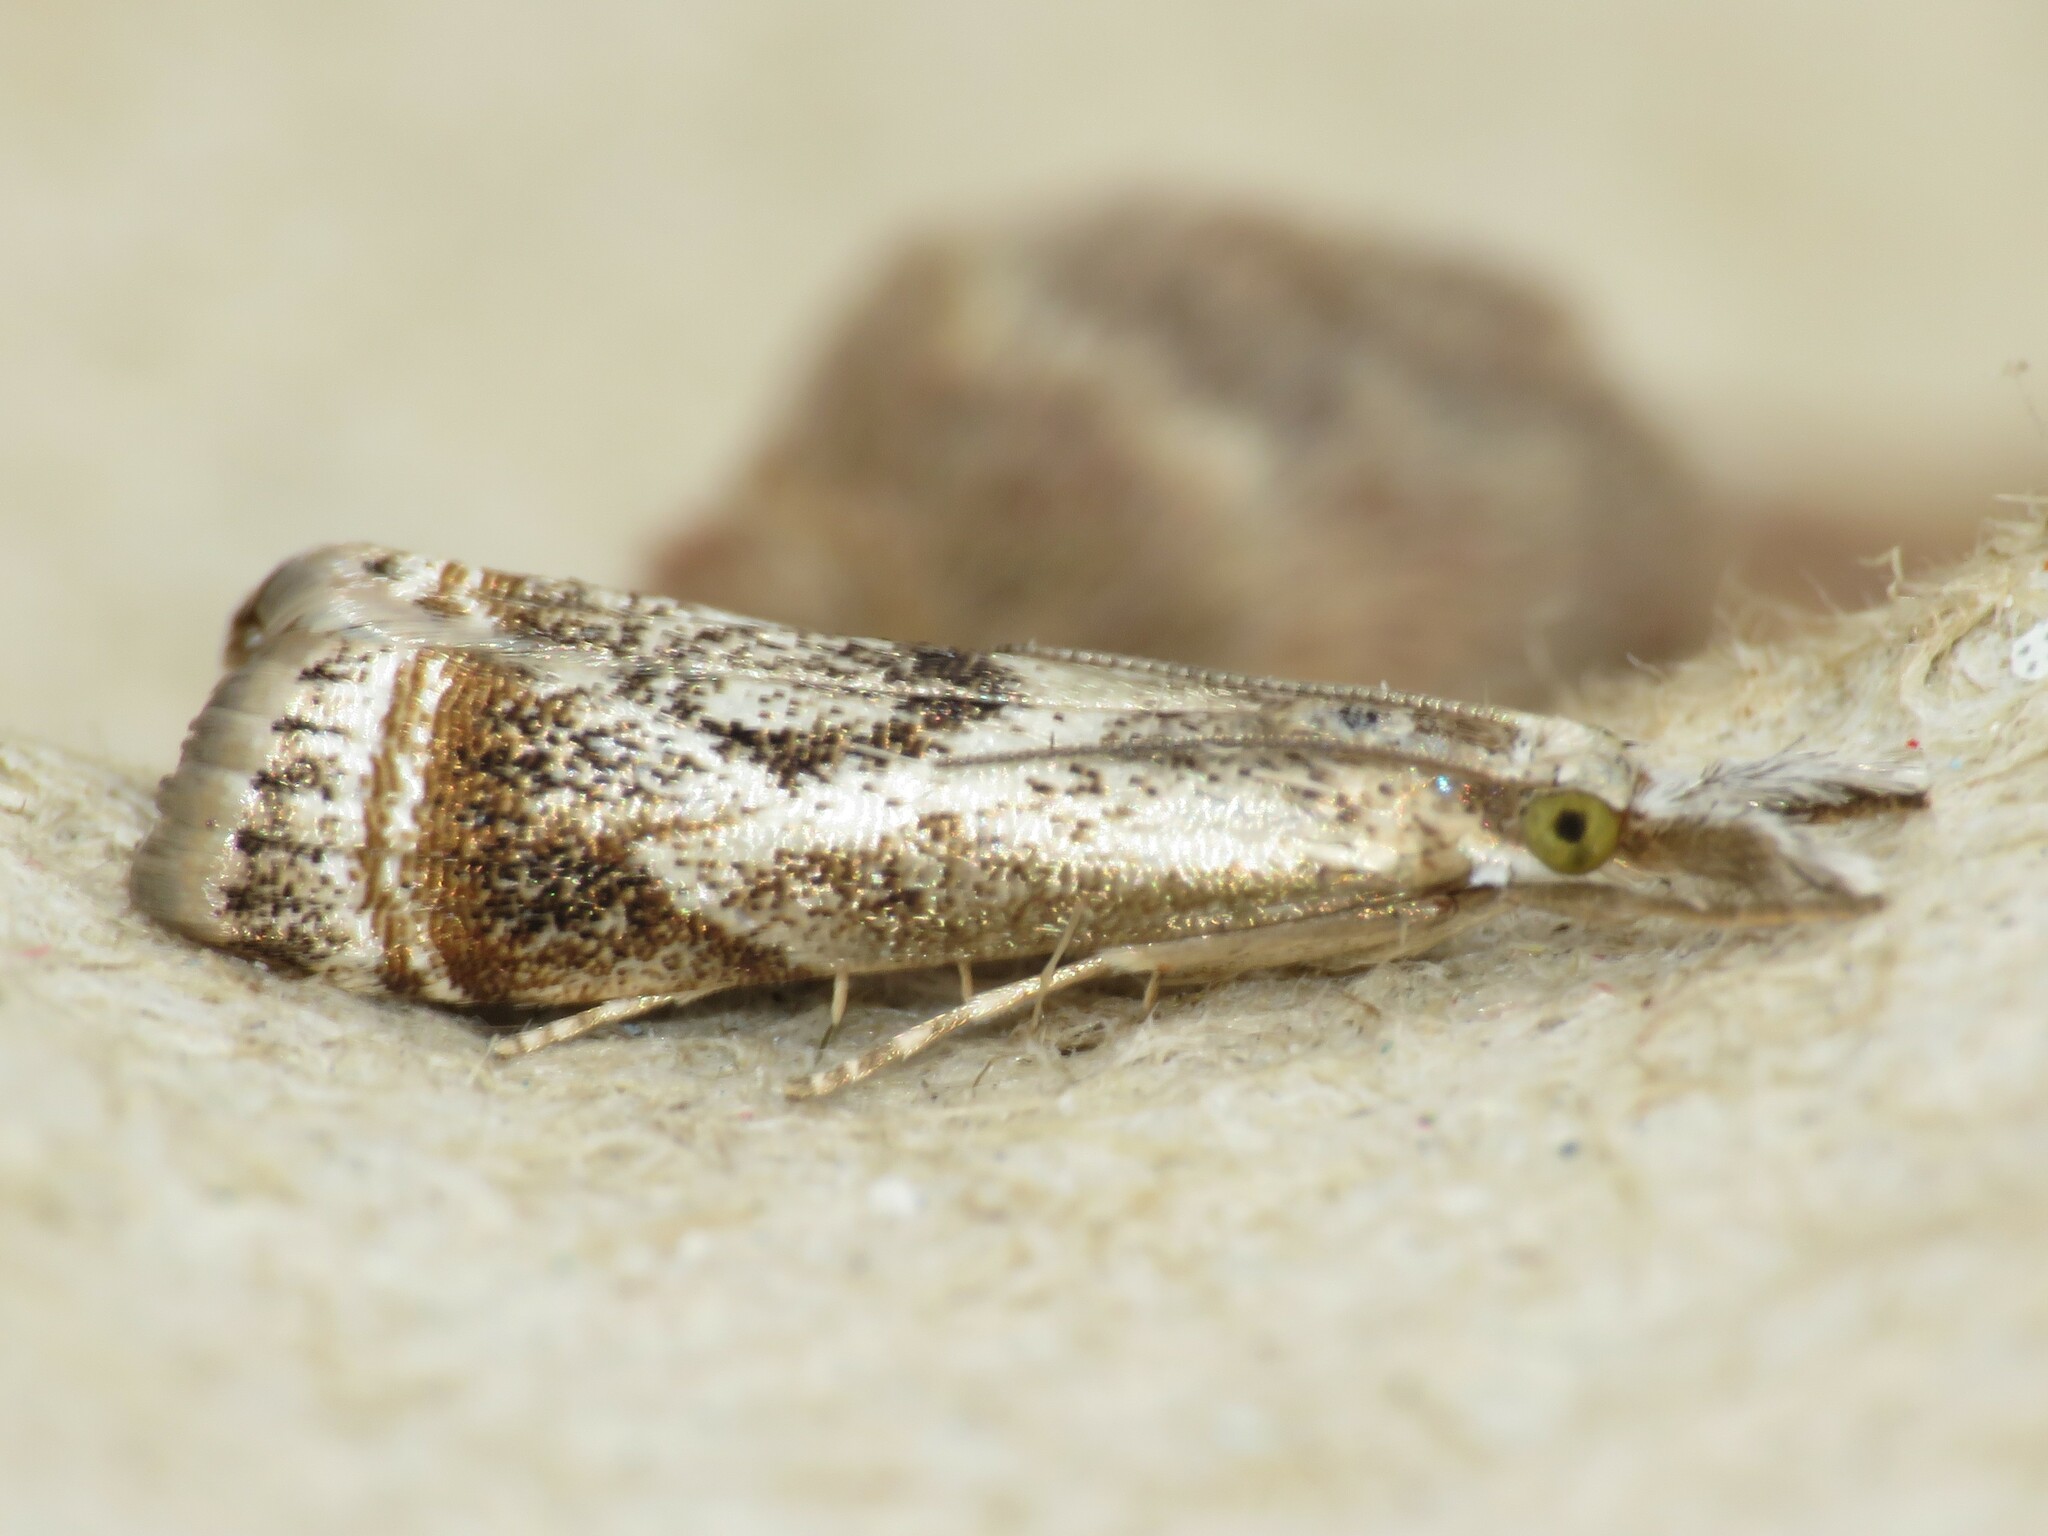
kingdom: Animalia
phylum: Arthropoda
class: Insecta
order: Lepidoptera
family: Crambidae
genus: Microcrambus
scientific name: Microcrambus elegans
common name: Elegant grass-veneer
